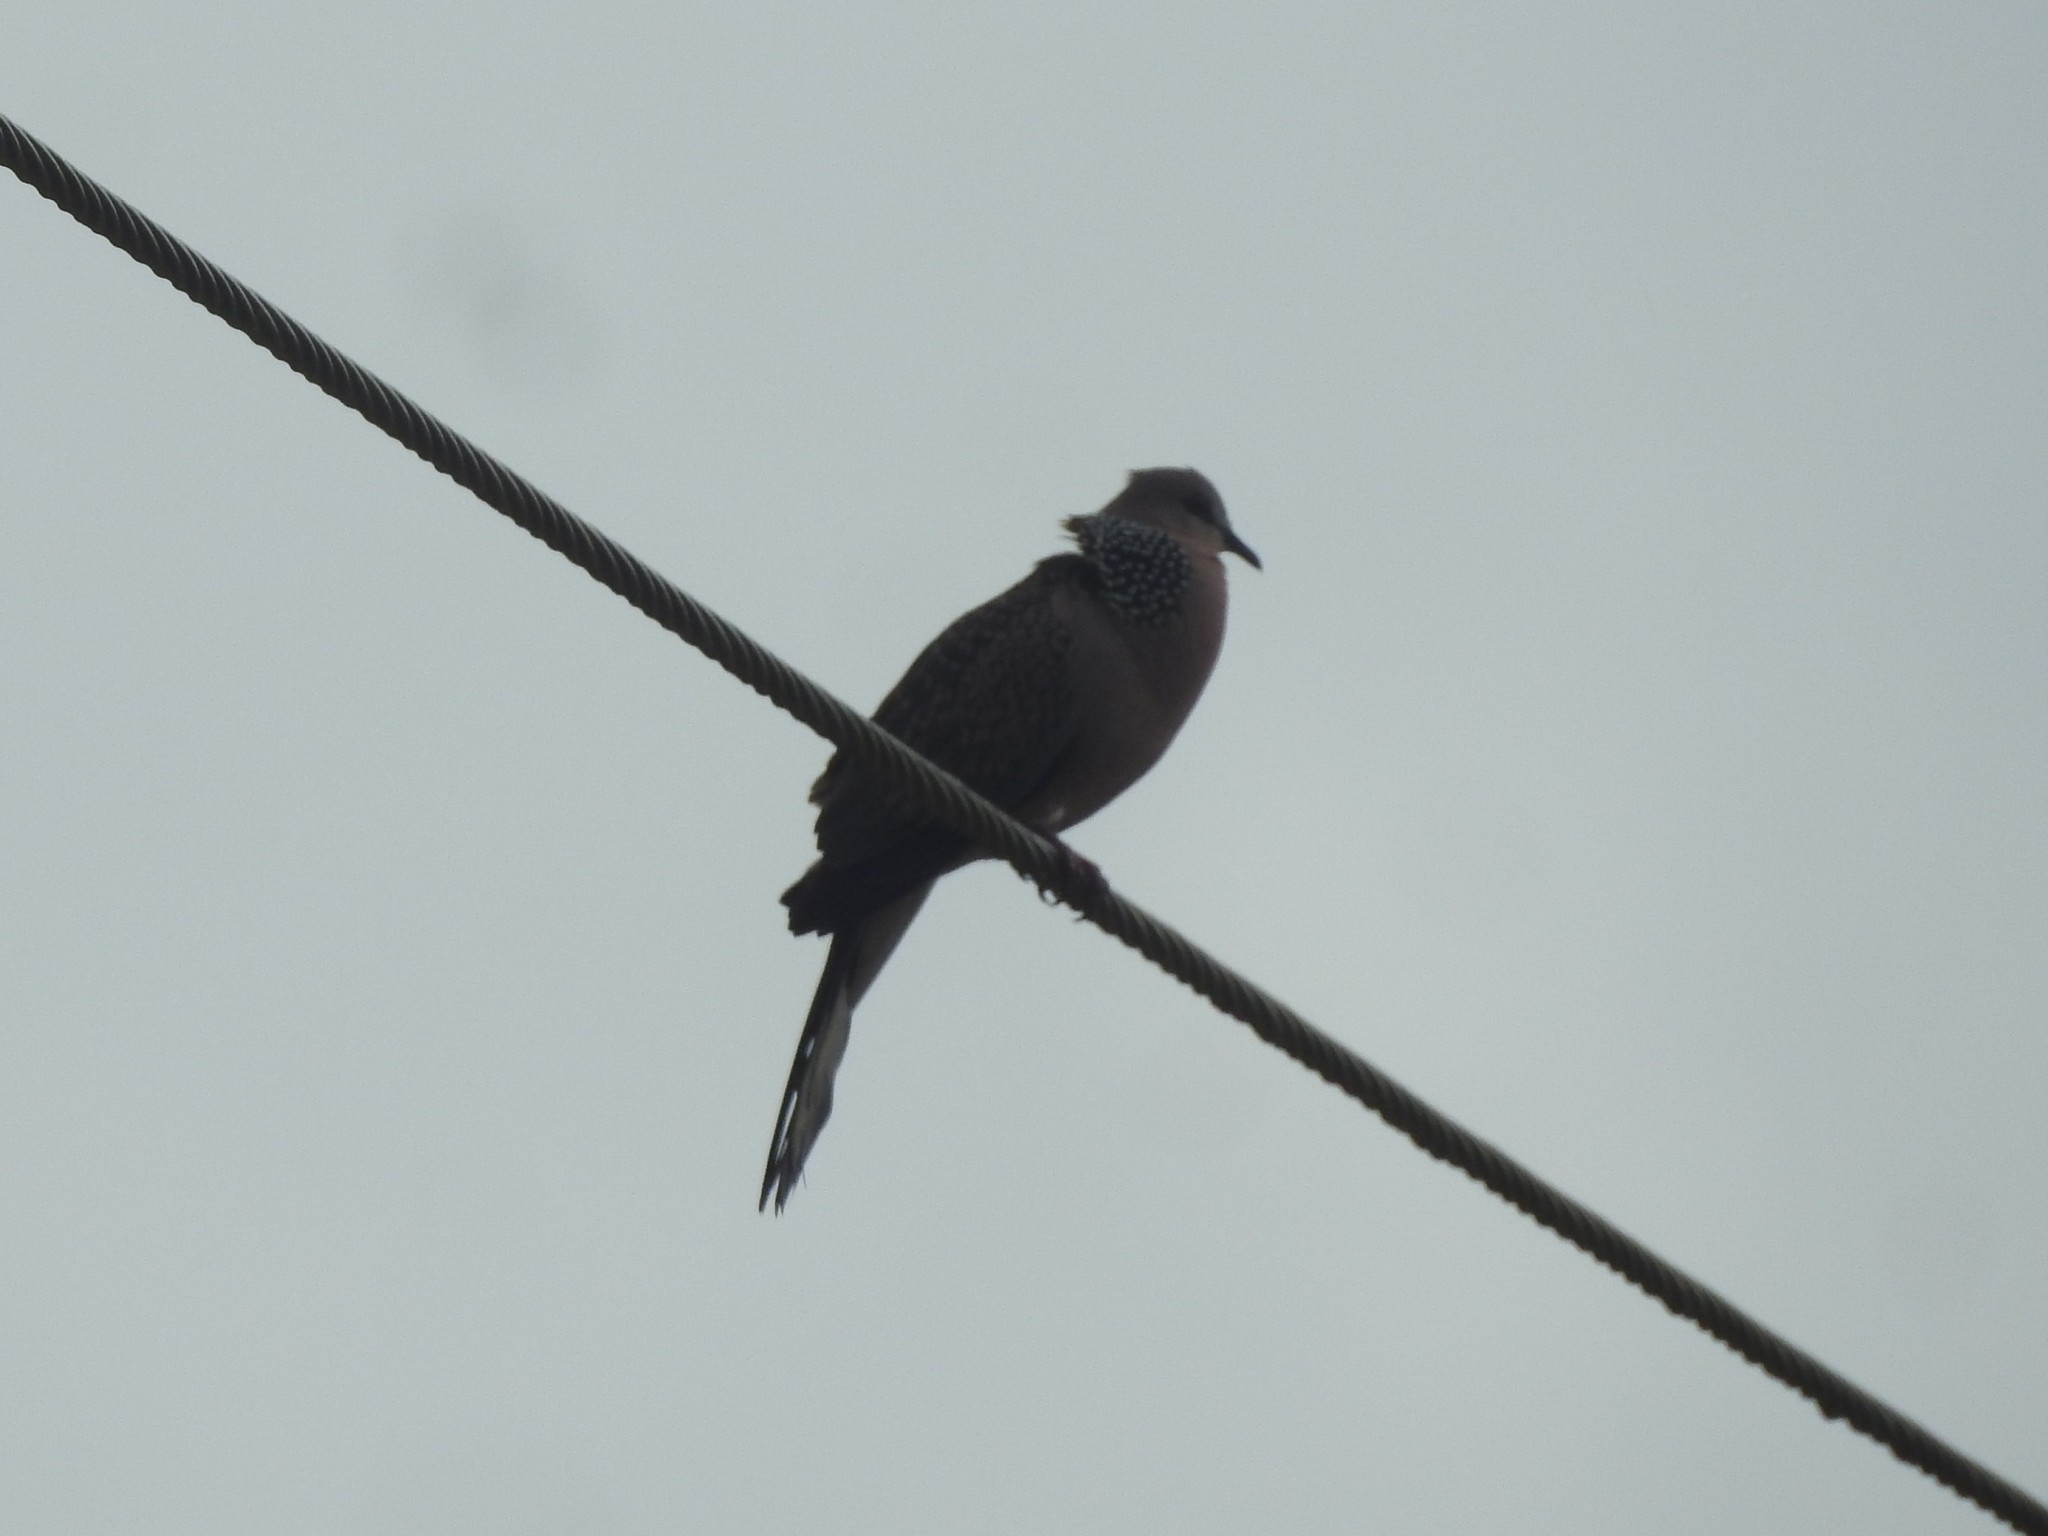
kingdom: Animalia
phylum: Chordata
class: Aves
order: Columbiformes
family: Columbidae
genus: Spilopelia
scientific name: Spilopelia chinensis
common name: Spotted dove
